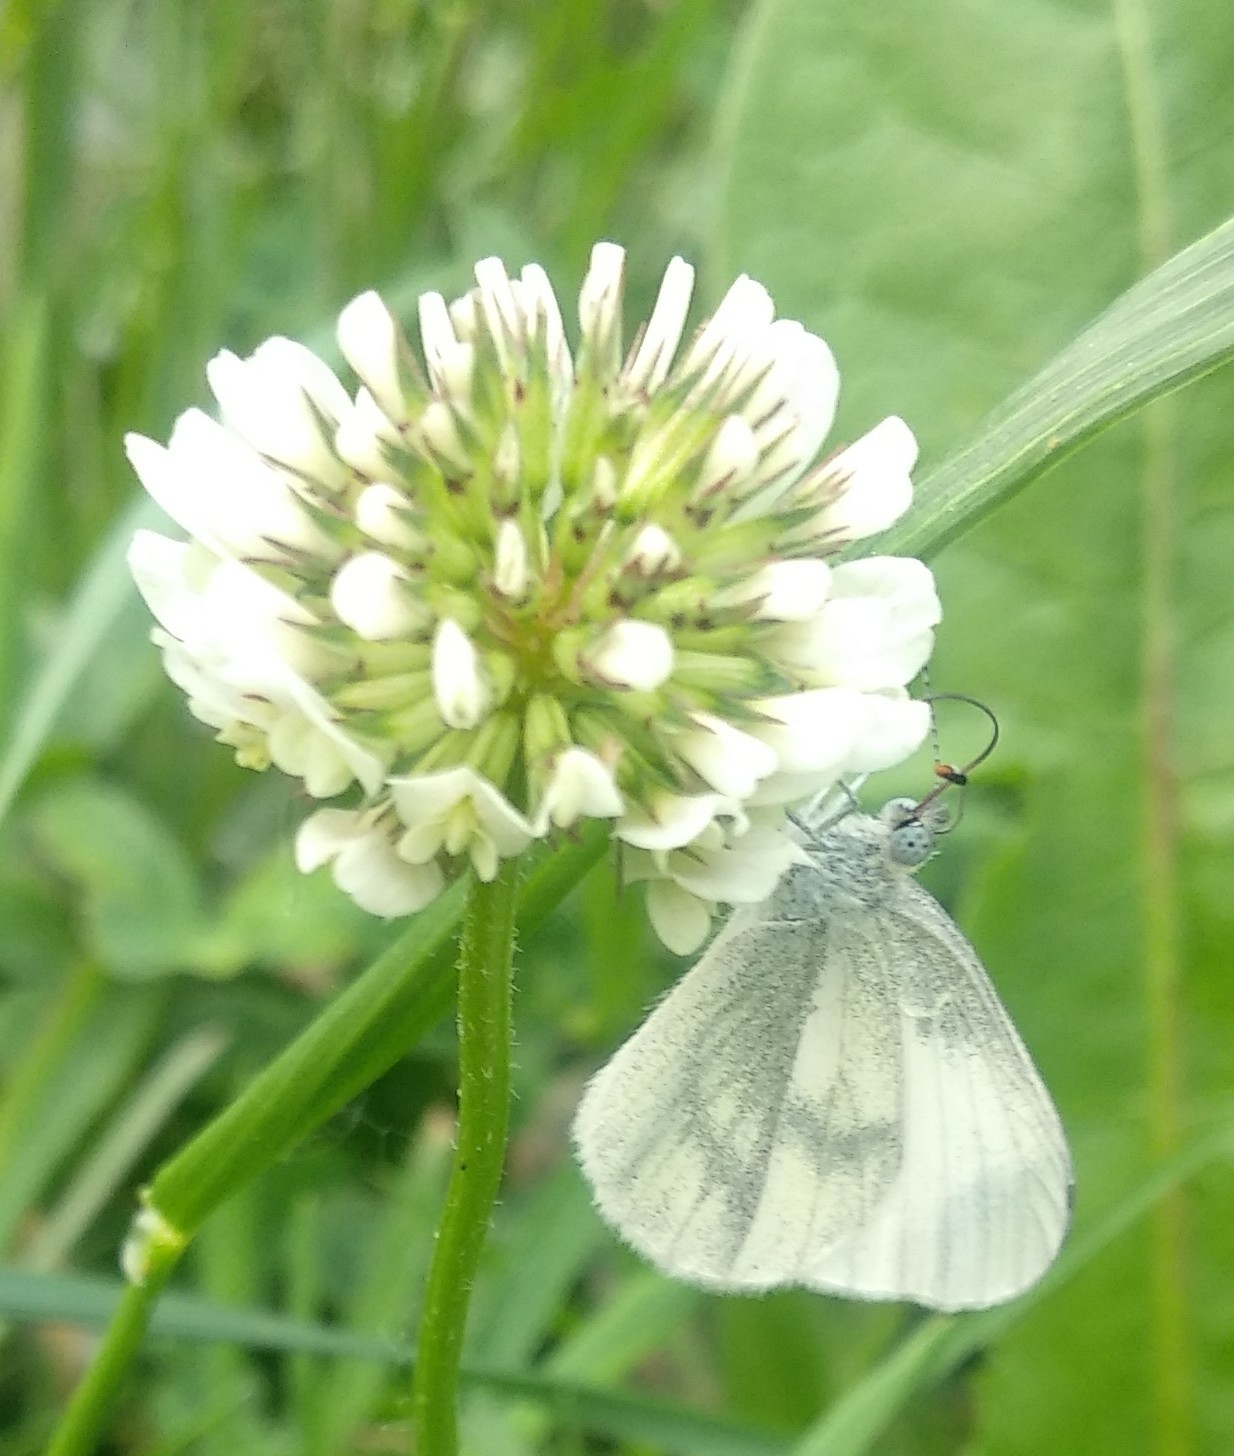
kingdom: Animalia
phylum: Arthropoda
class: Insecta
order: Lepidoptera
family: Pieridae
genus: Leptidea
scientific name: Leptidea sinapis
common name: Wood white
